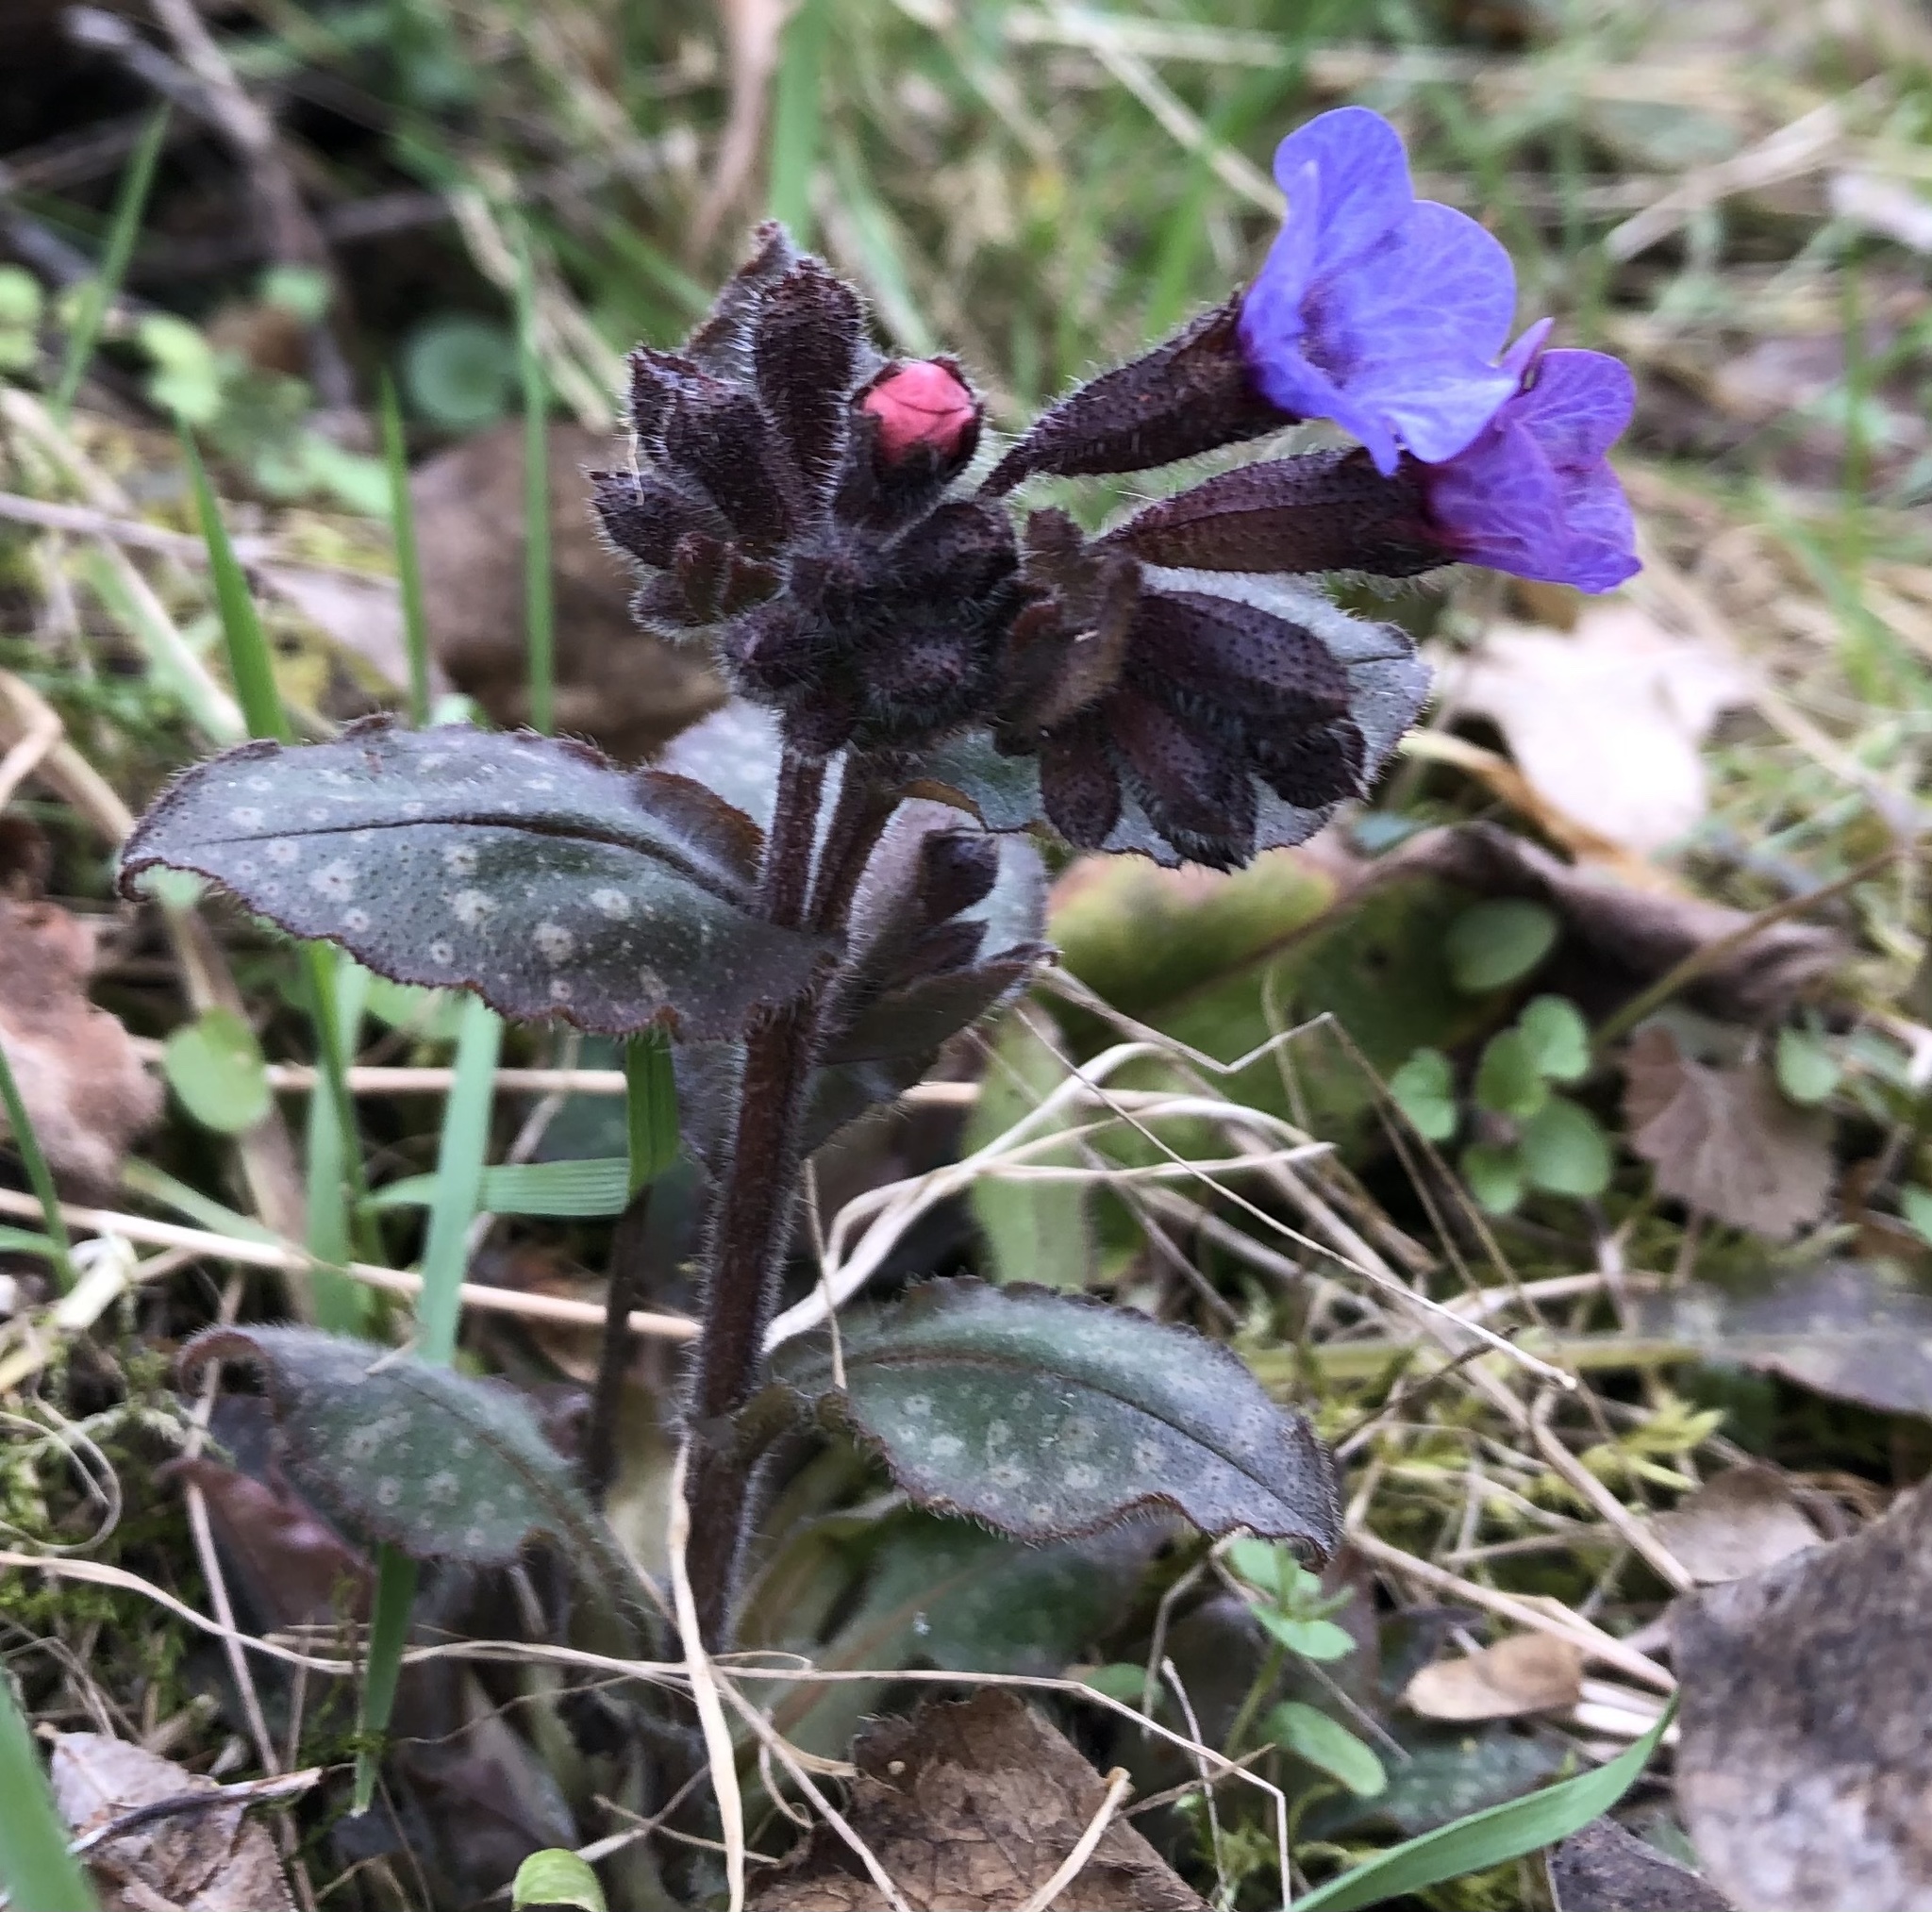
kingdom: Plantae
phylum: Tracheophyta
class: Magnoliopsida
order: Boraginales
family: Boraginaceae
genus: Pulmonaria
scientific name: Pulmonaria officinalis
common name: Lungwort
